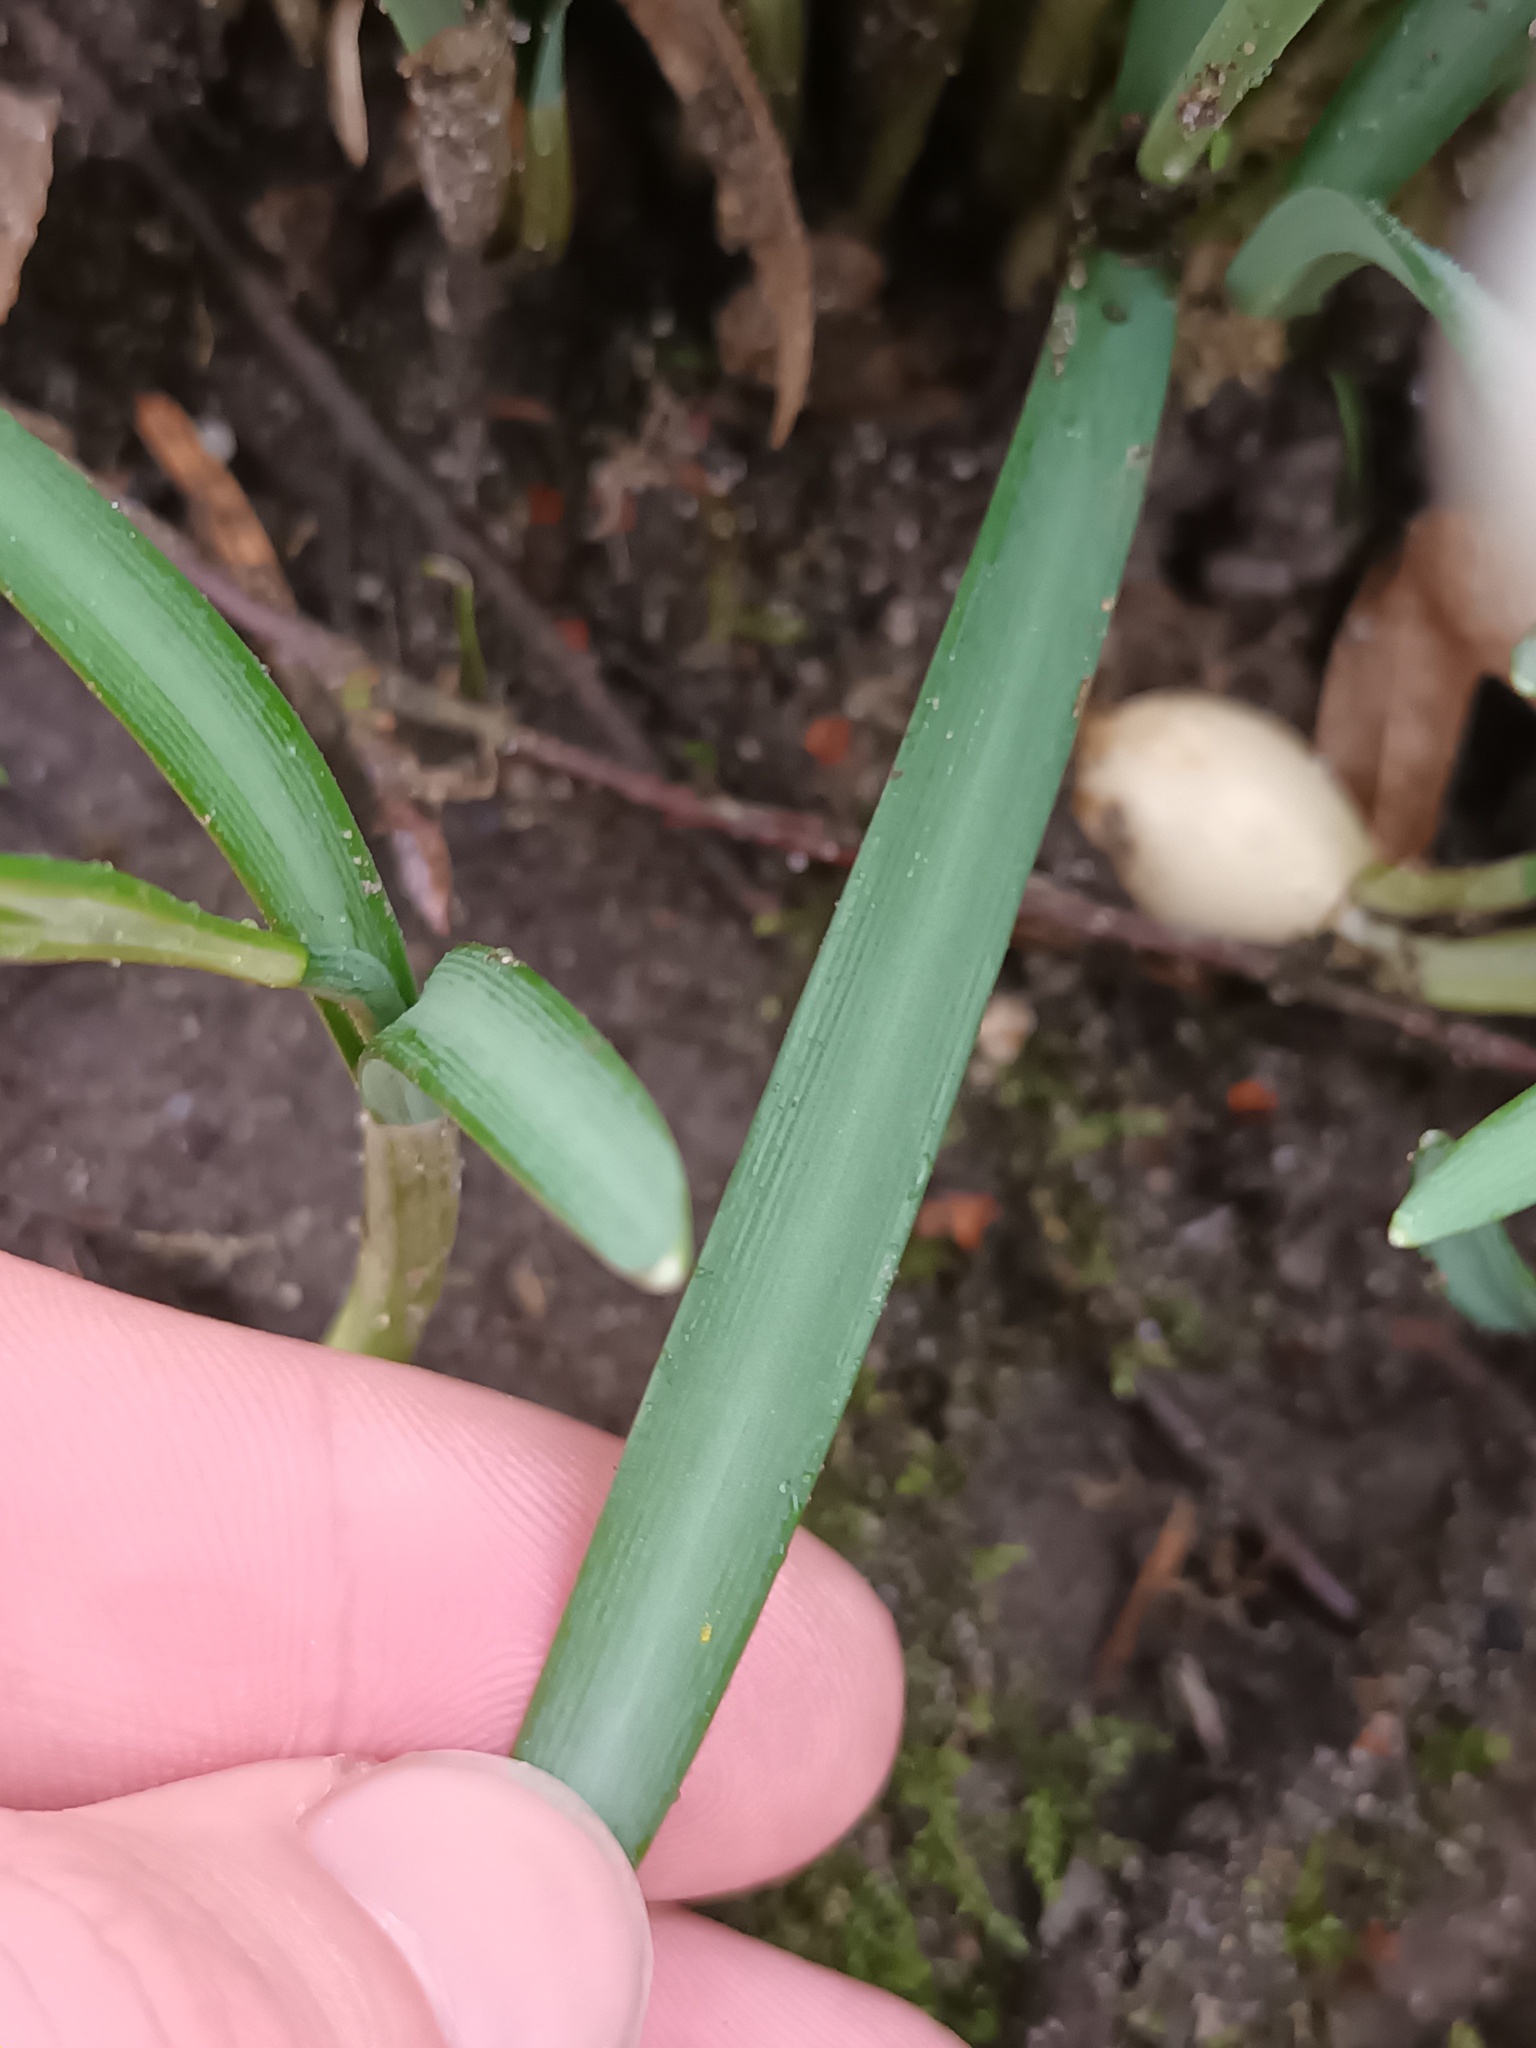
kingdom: Plantae
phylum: Tracheophyta
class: Liliopsida
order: Asparagales
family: Amaryllidaceae
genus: Galanthus
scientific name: Galanthus nivalis
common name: Snowdrop
